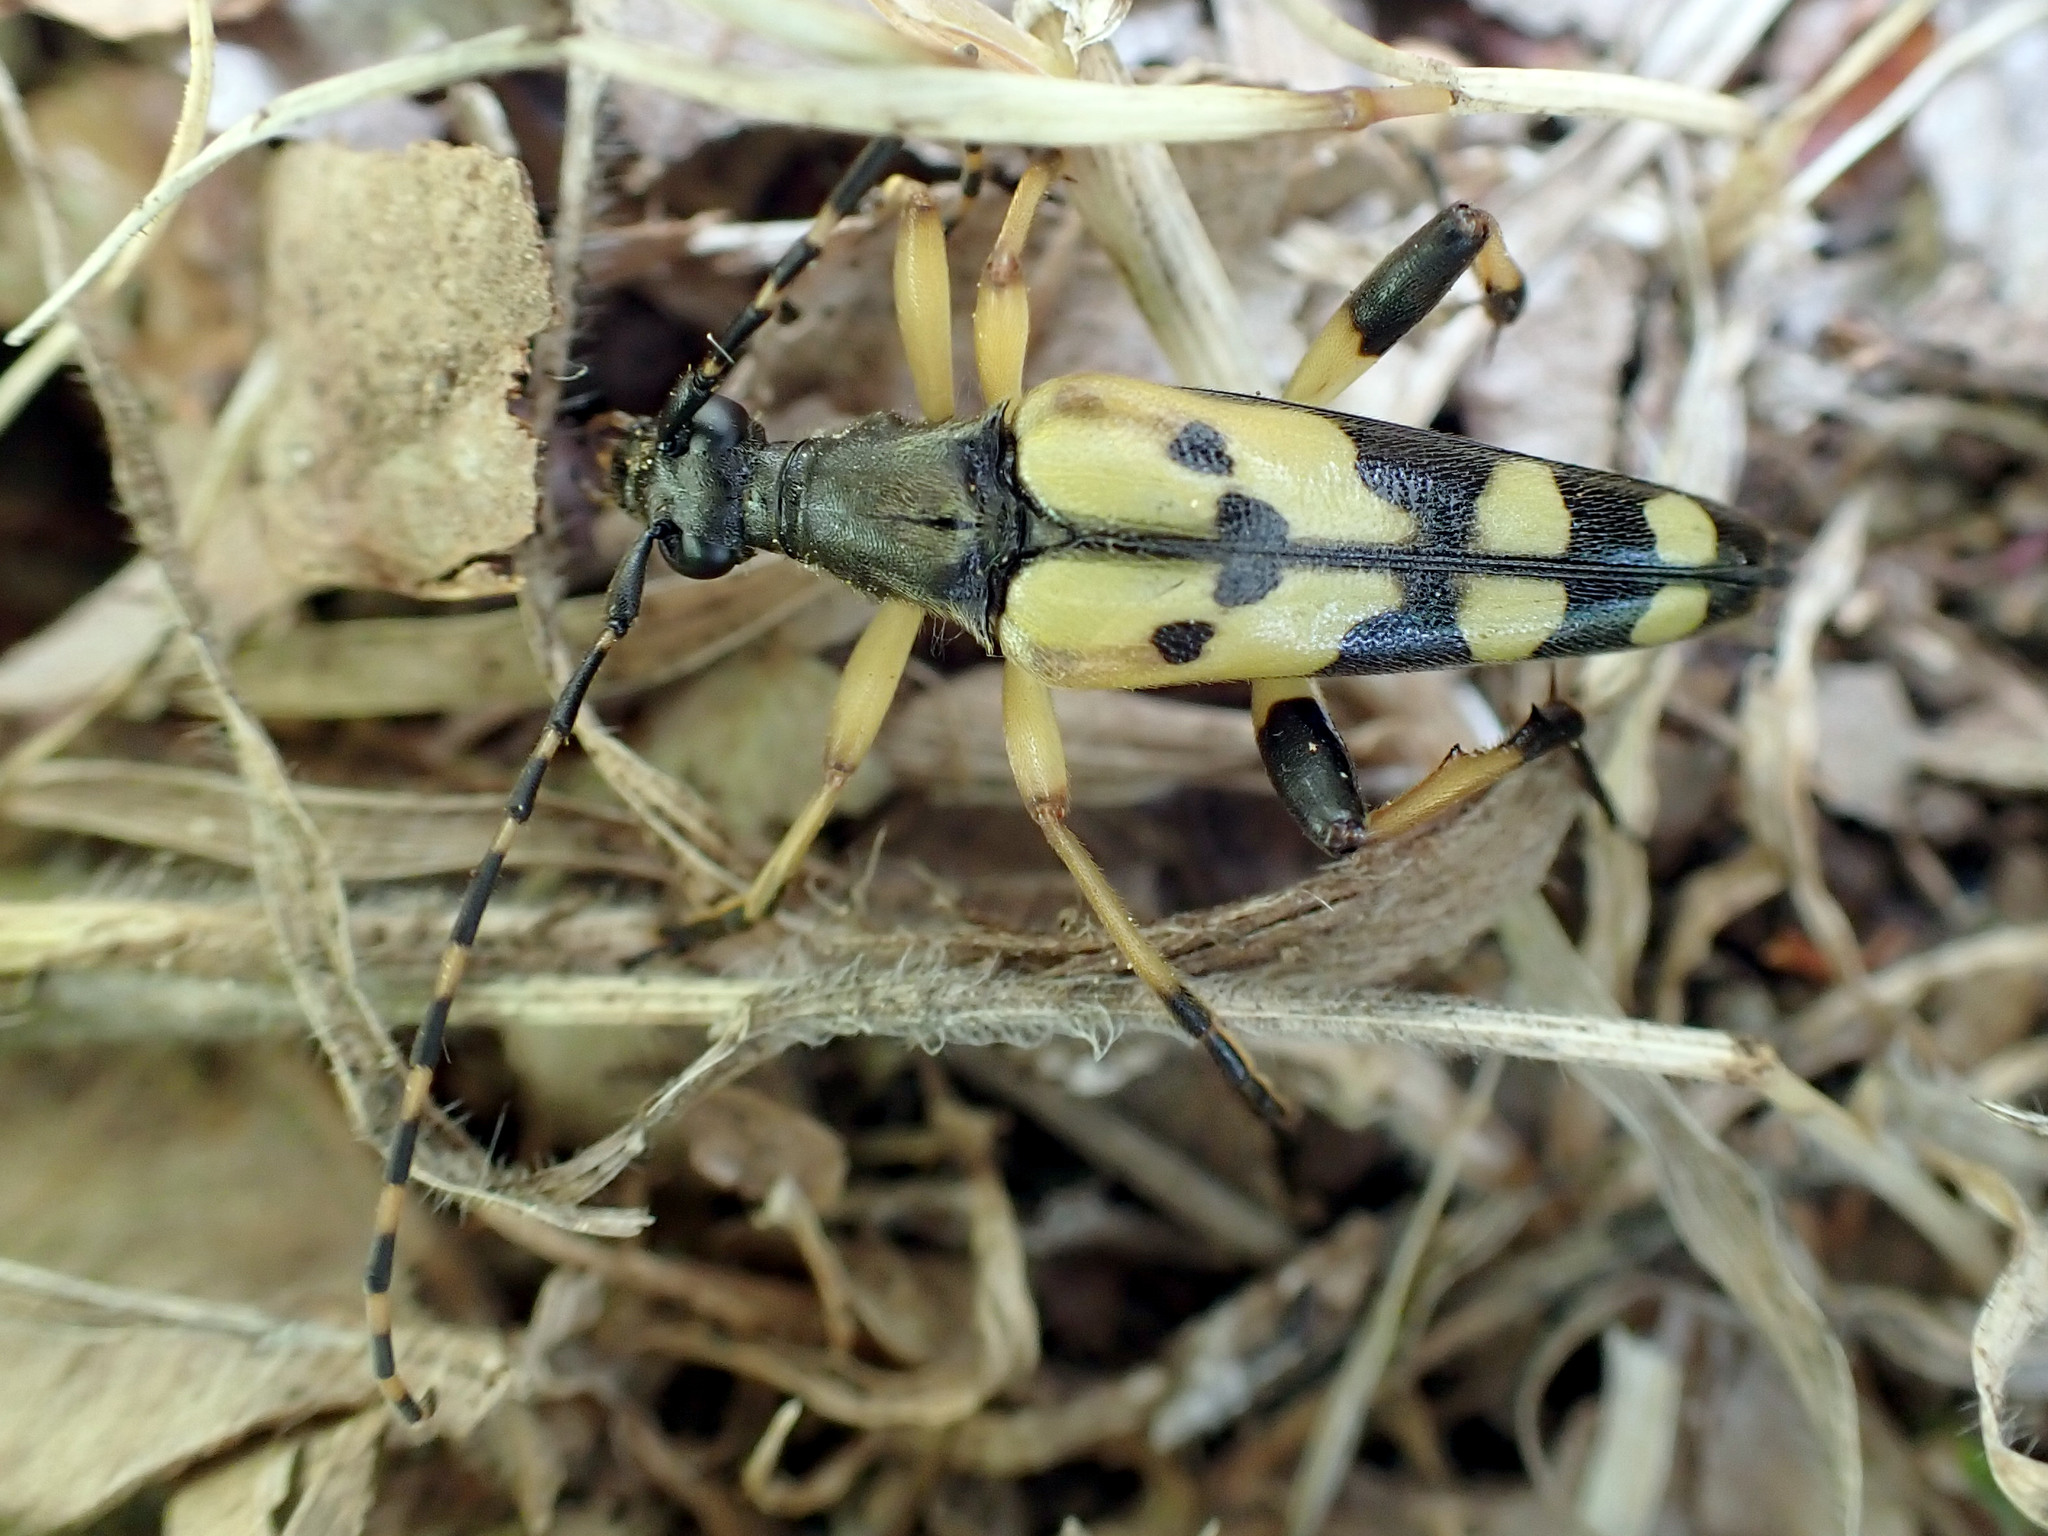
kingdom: Animalia
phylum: Arthropoda
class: Insecta
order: Coleoptera
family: Cerambycidae
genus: Rutpela
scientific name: Rutpela maculata
